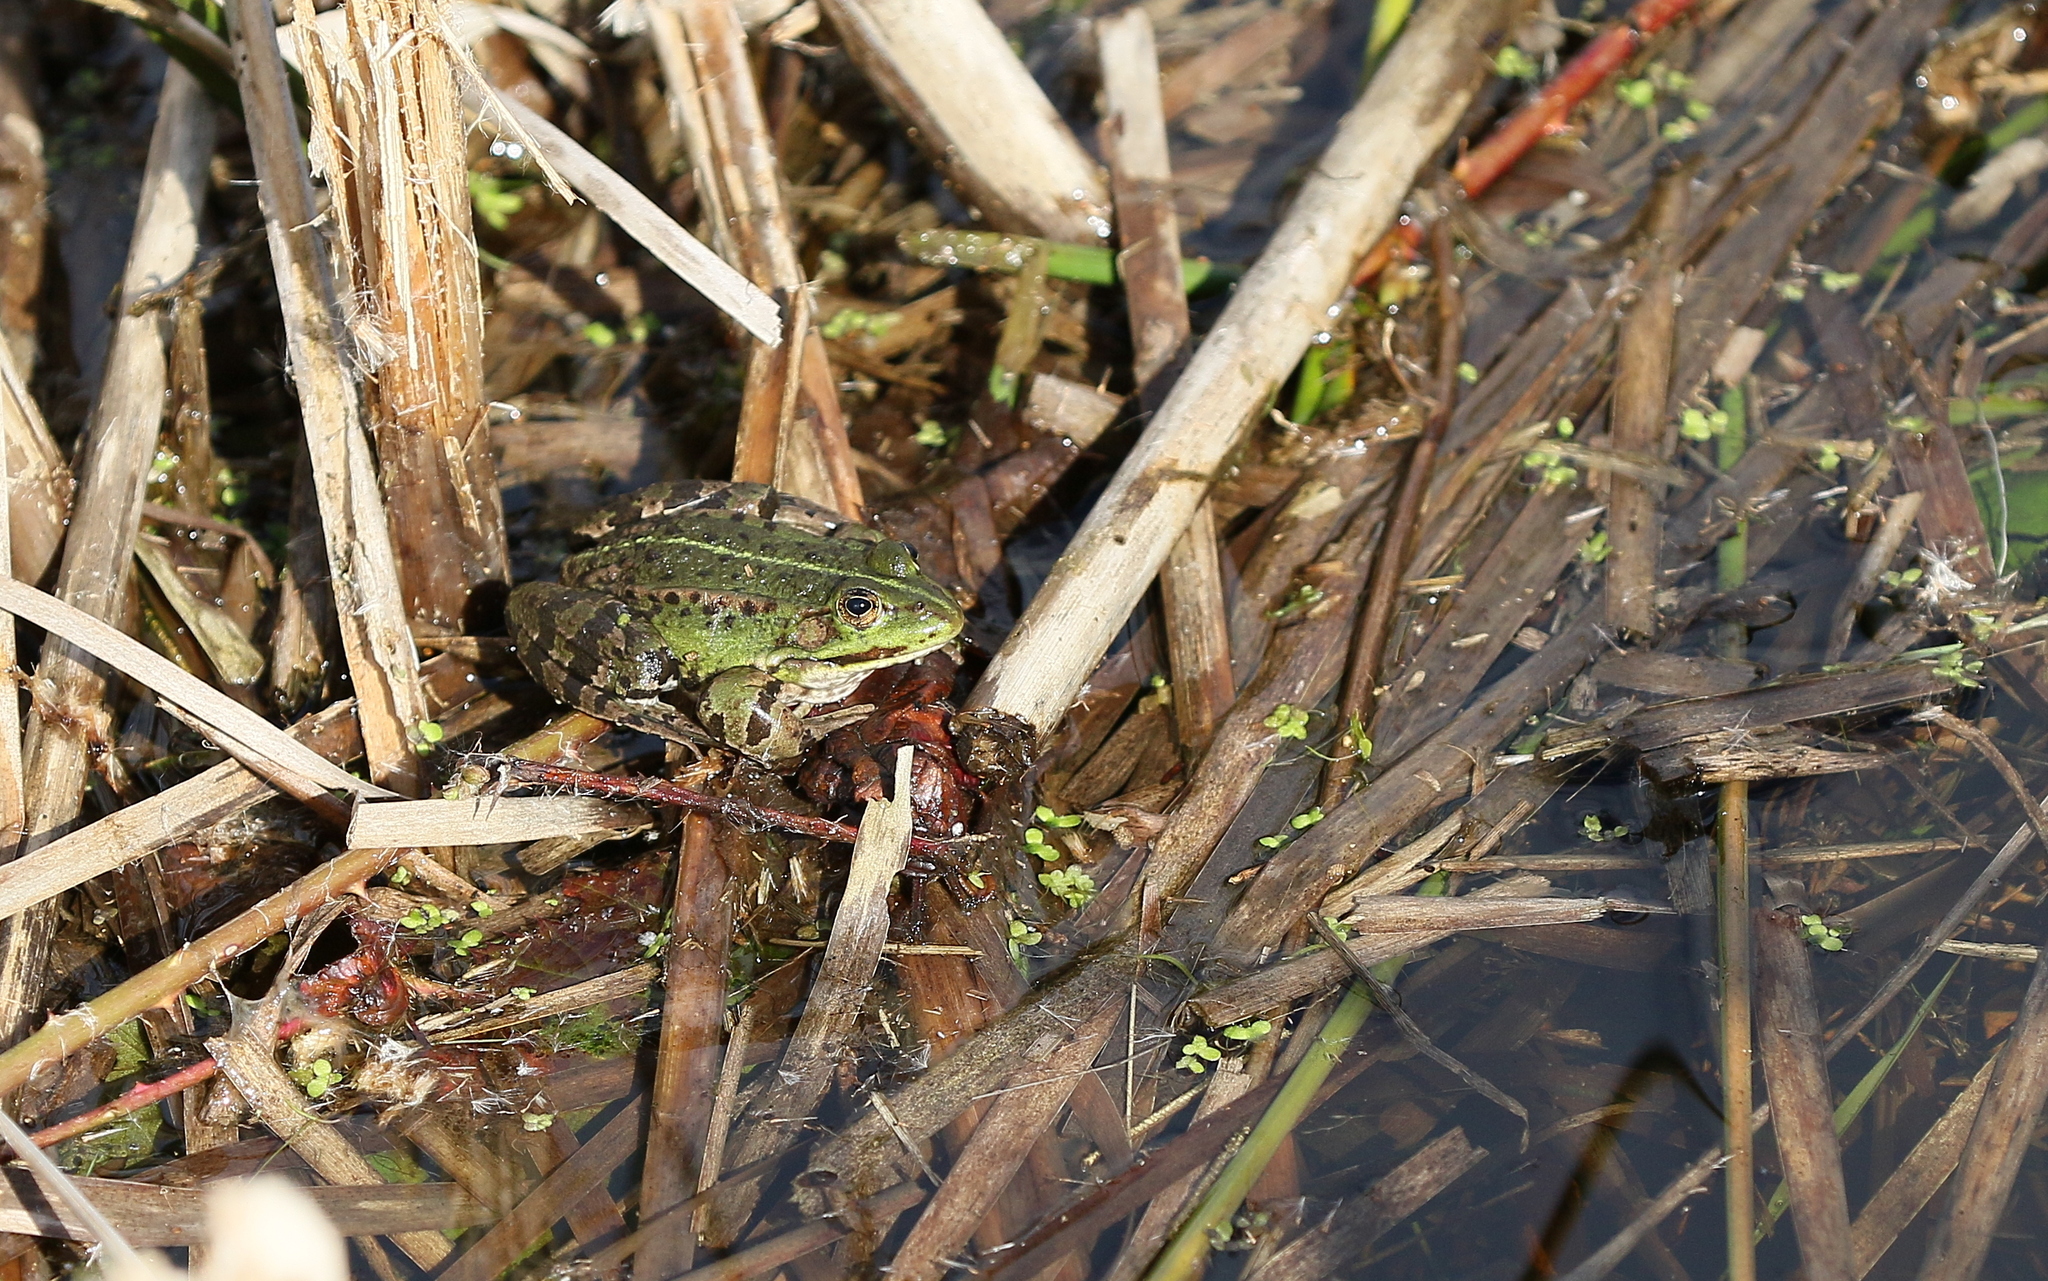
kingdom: Animalia
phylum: Chordata
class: Amphibia
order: Anura
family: Ranidae
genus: Pelophylax
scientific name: Pelophylax
